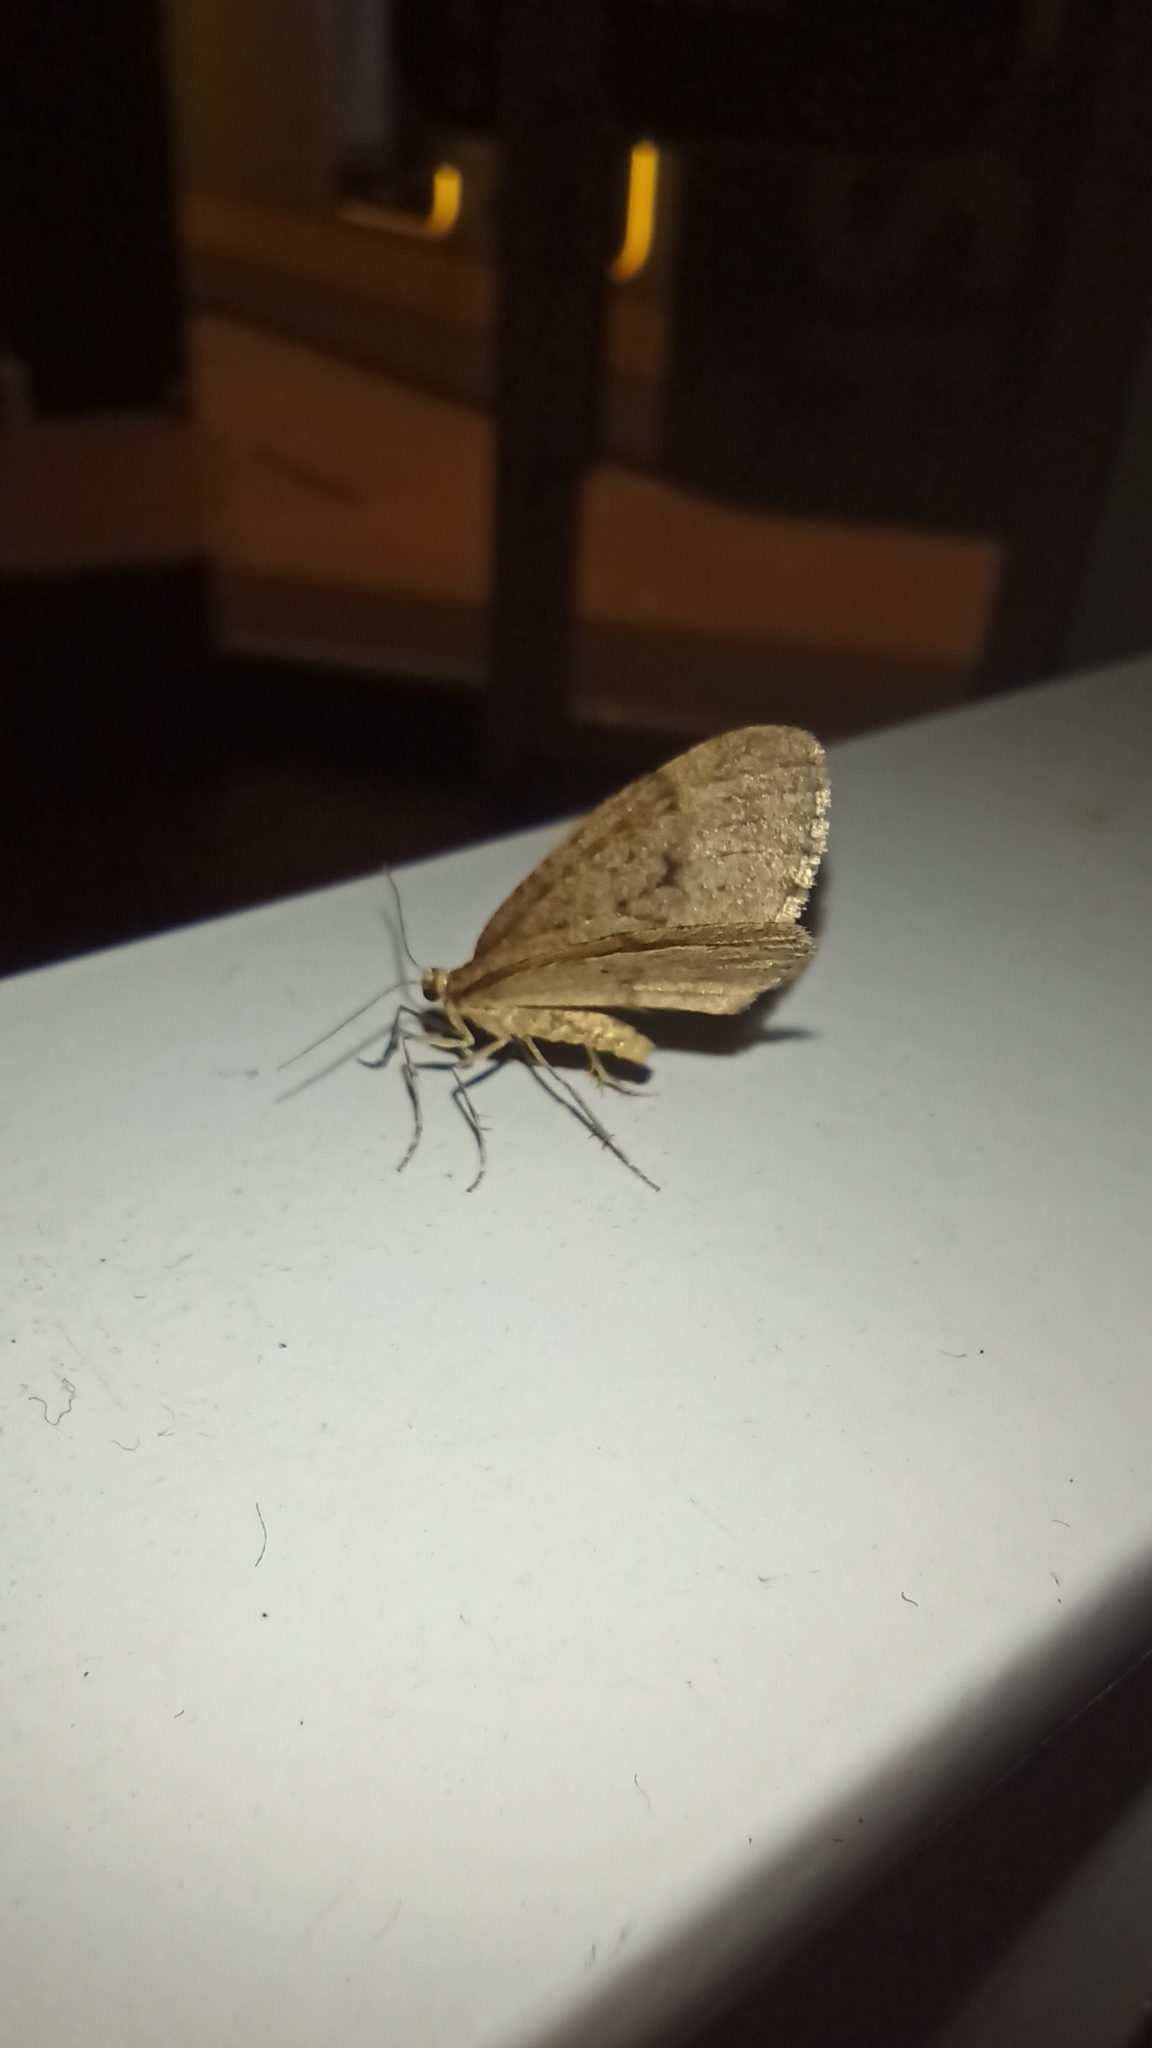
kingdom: Animalia
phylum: Arthropoda
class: Insecta
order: Lepidoptera
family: Geometridae
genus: Operophtera
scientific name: Operophtera brumata
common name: Winter moth
